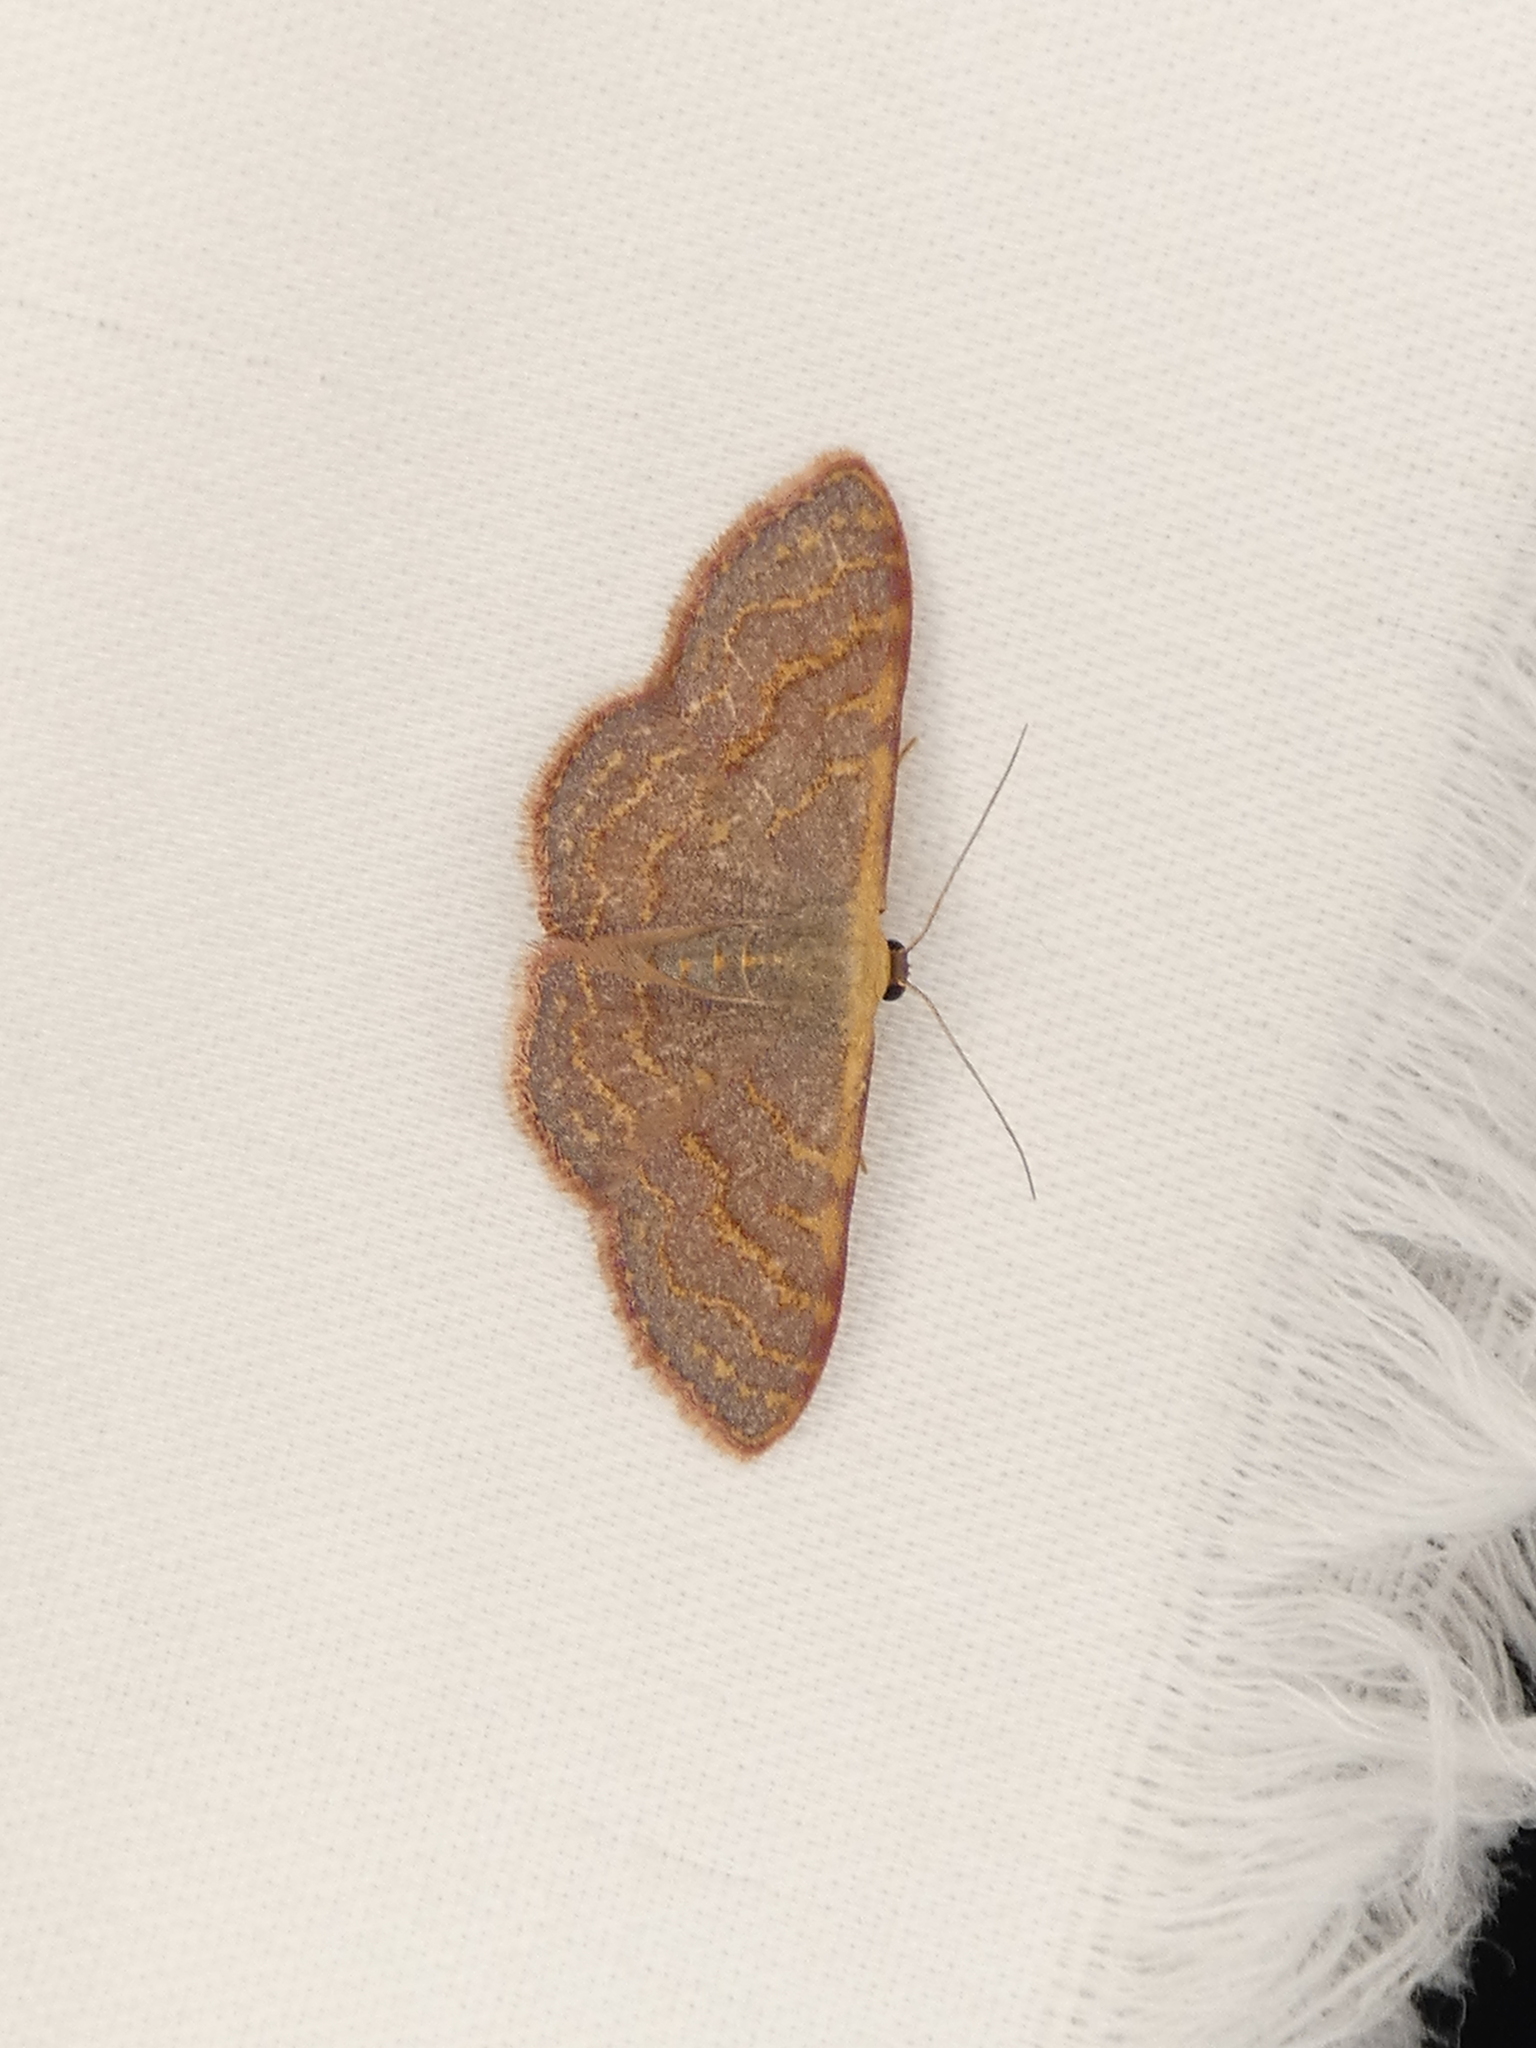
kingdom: Animalia
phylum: Arthropoda
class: Insecta
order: Lepidoptera
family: Geometridae
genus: Leptostales
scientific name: Leptostales pannaria
